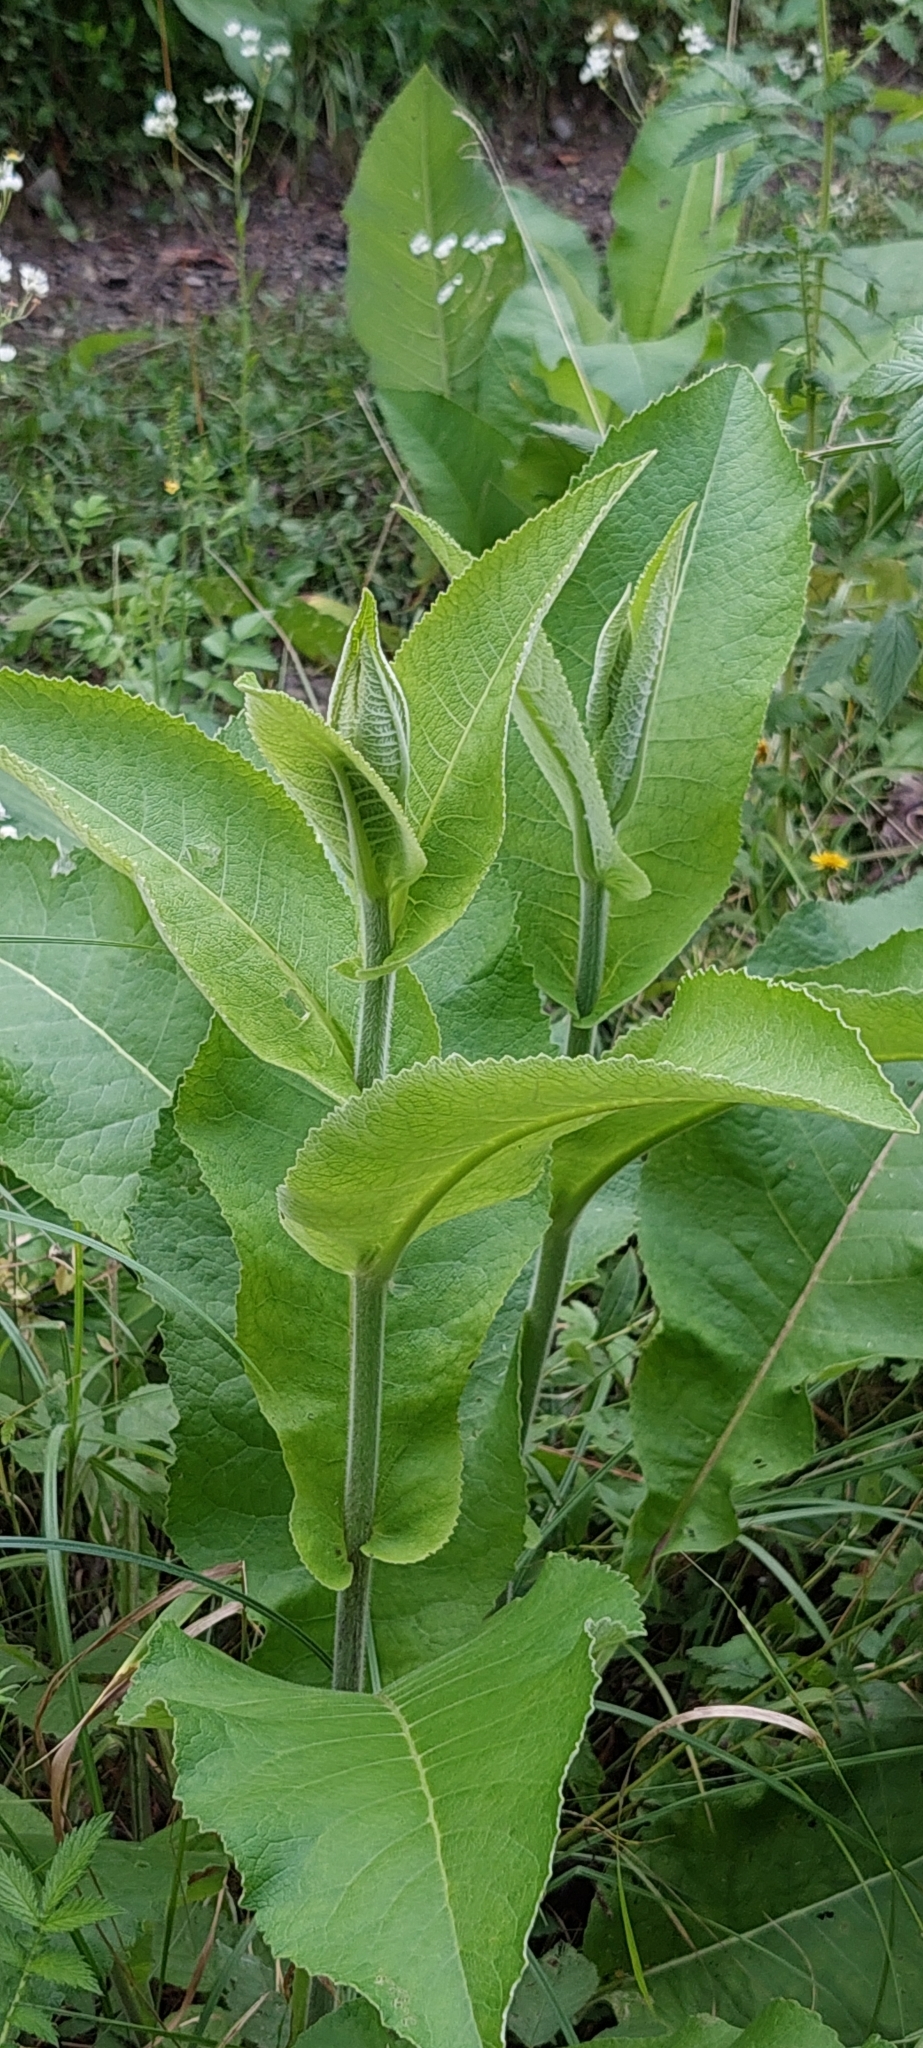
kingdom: Plantae
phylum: Tracheophyta
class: Magnoliopsida
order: Asterales
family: Asteraceae
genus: Inula
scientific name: Inula helenium
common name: Elecampane
